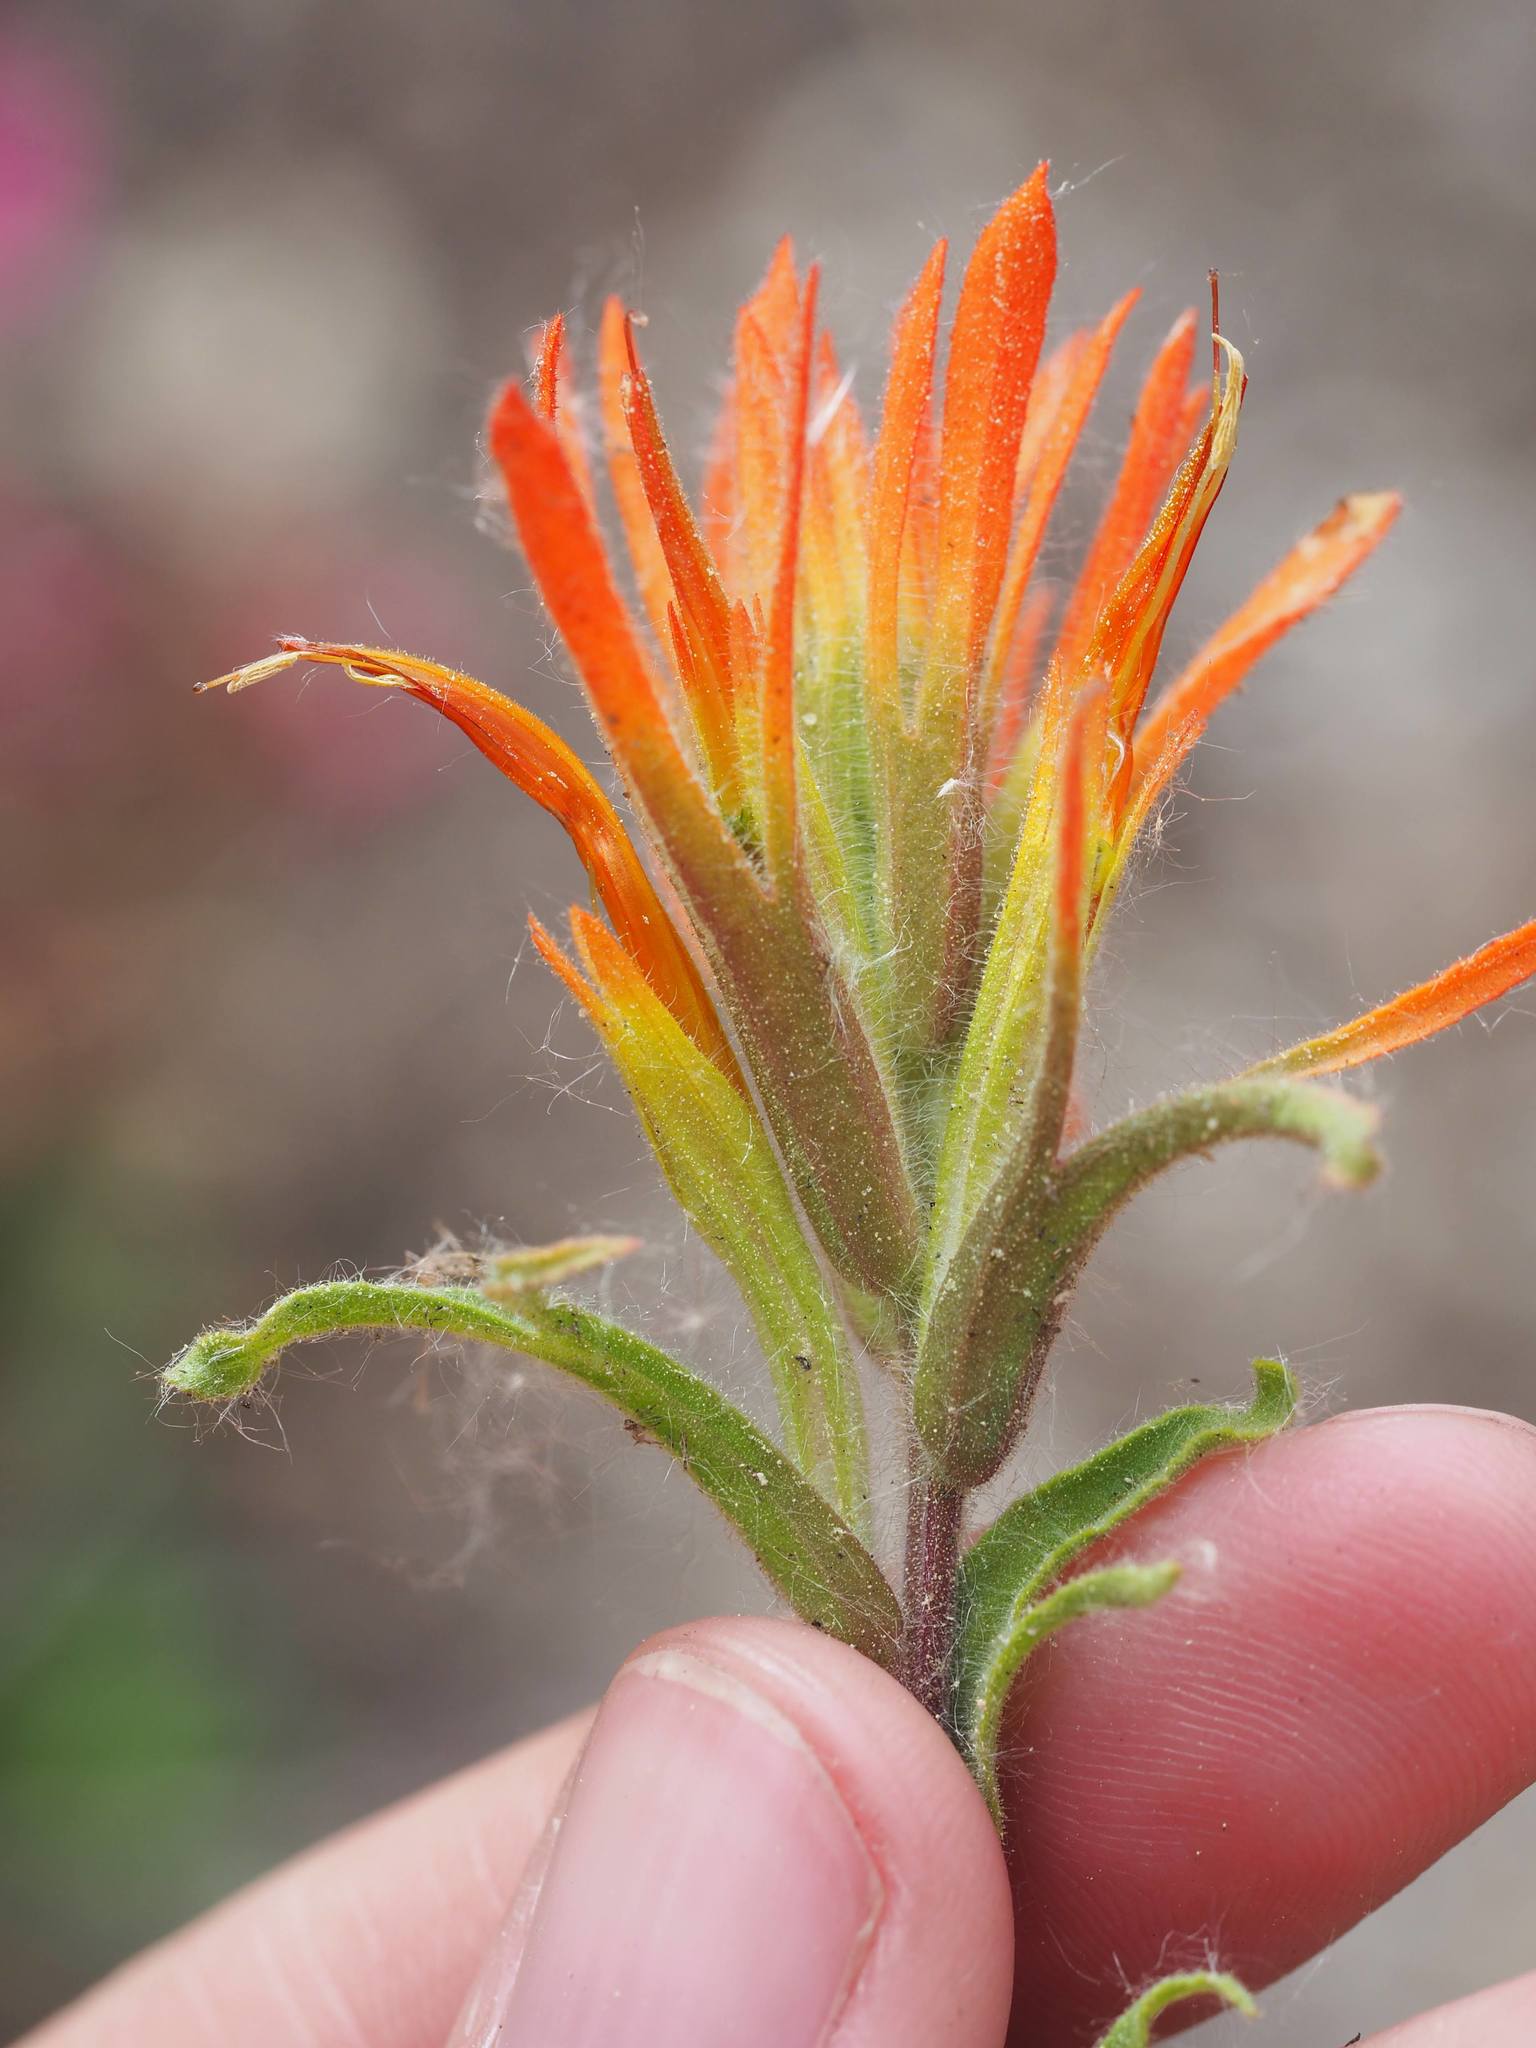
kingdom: Plantae
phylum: Tracheophyta
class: Magnoliopsida
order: Lamiales
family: Orobanchaceae
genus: Castilleja
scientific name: Castilleja applegatei
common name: Wavy-leaf paintbrush
